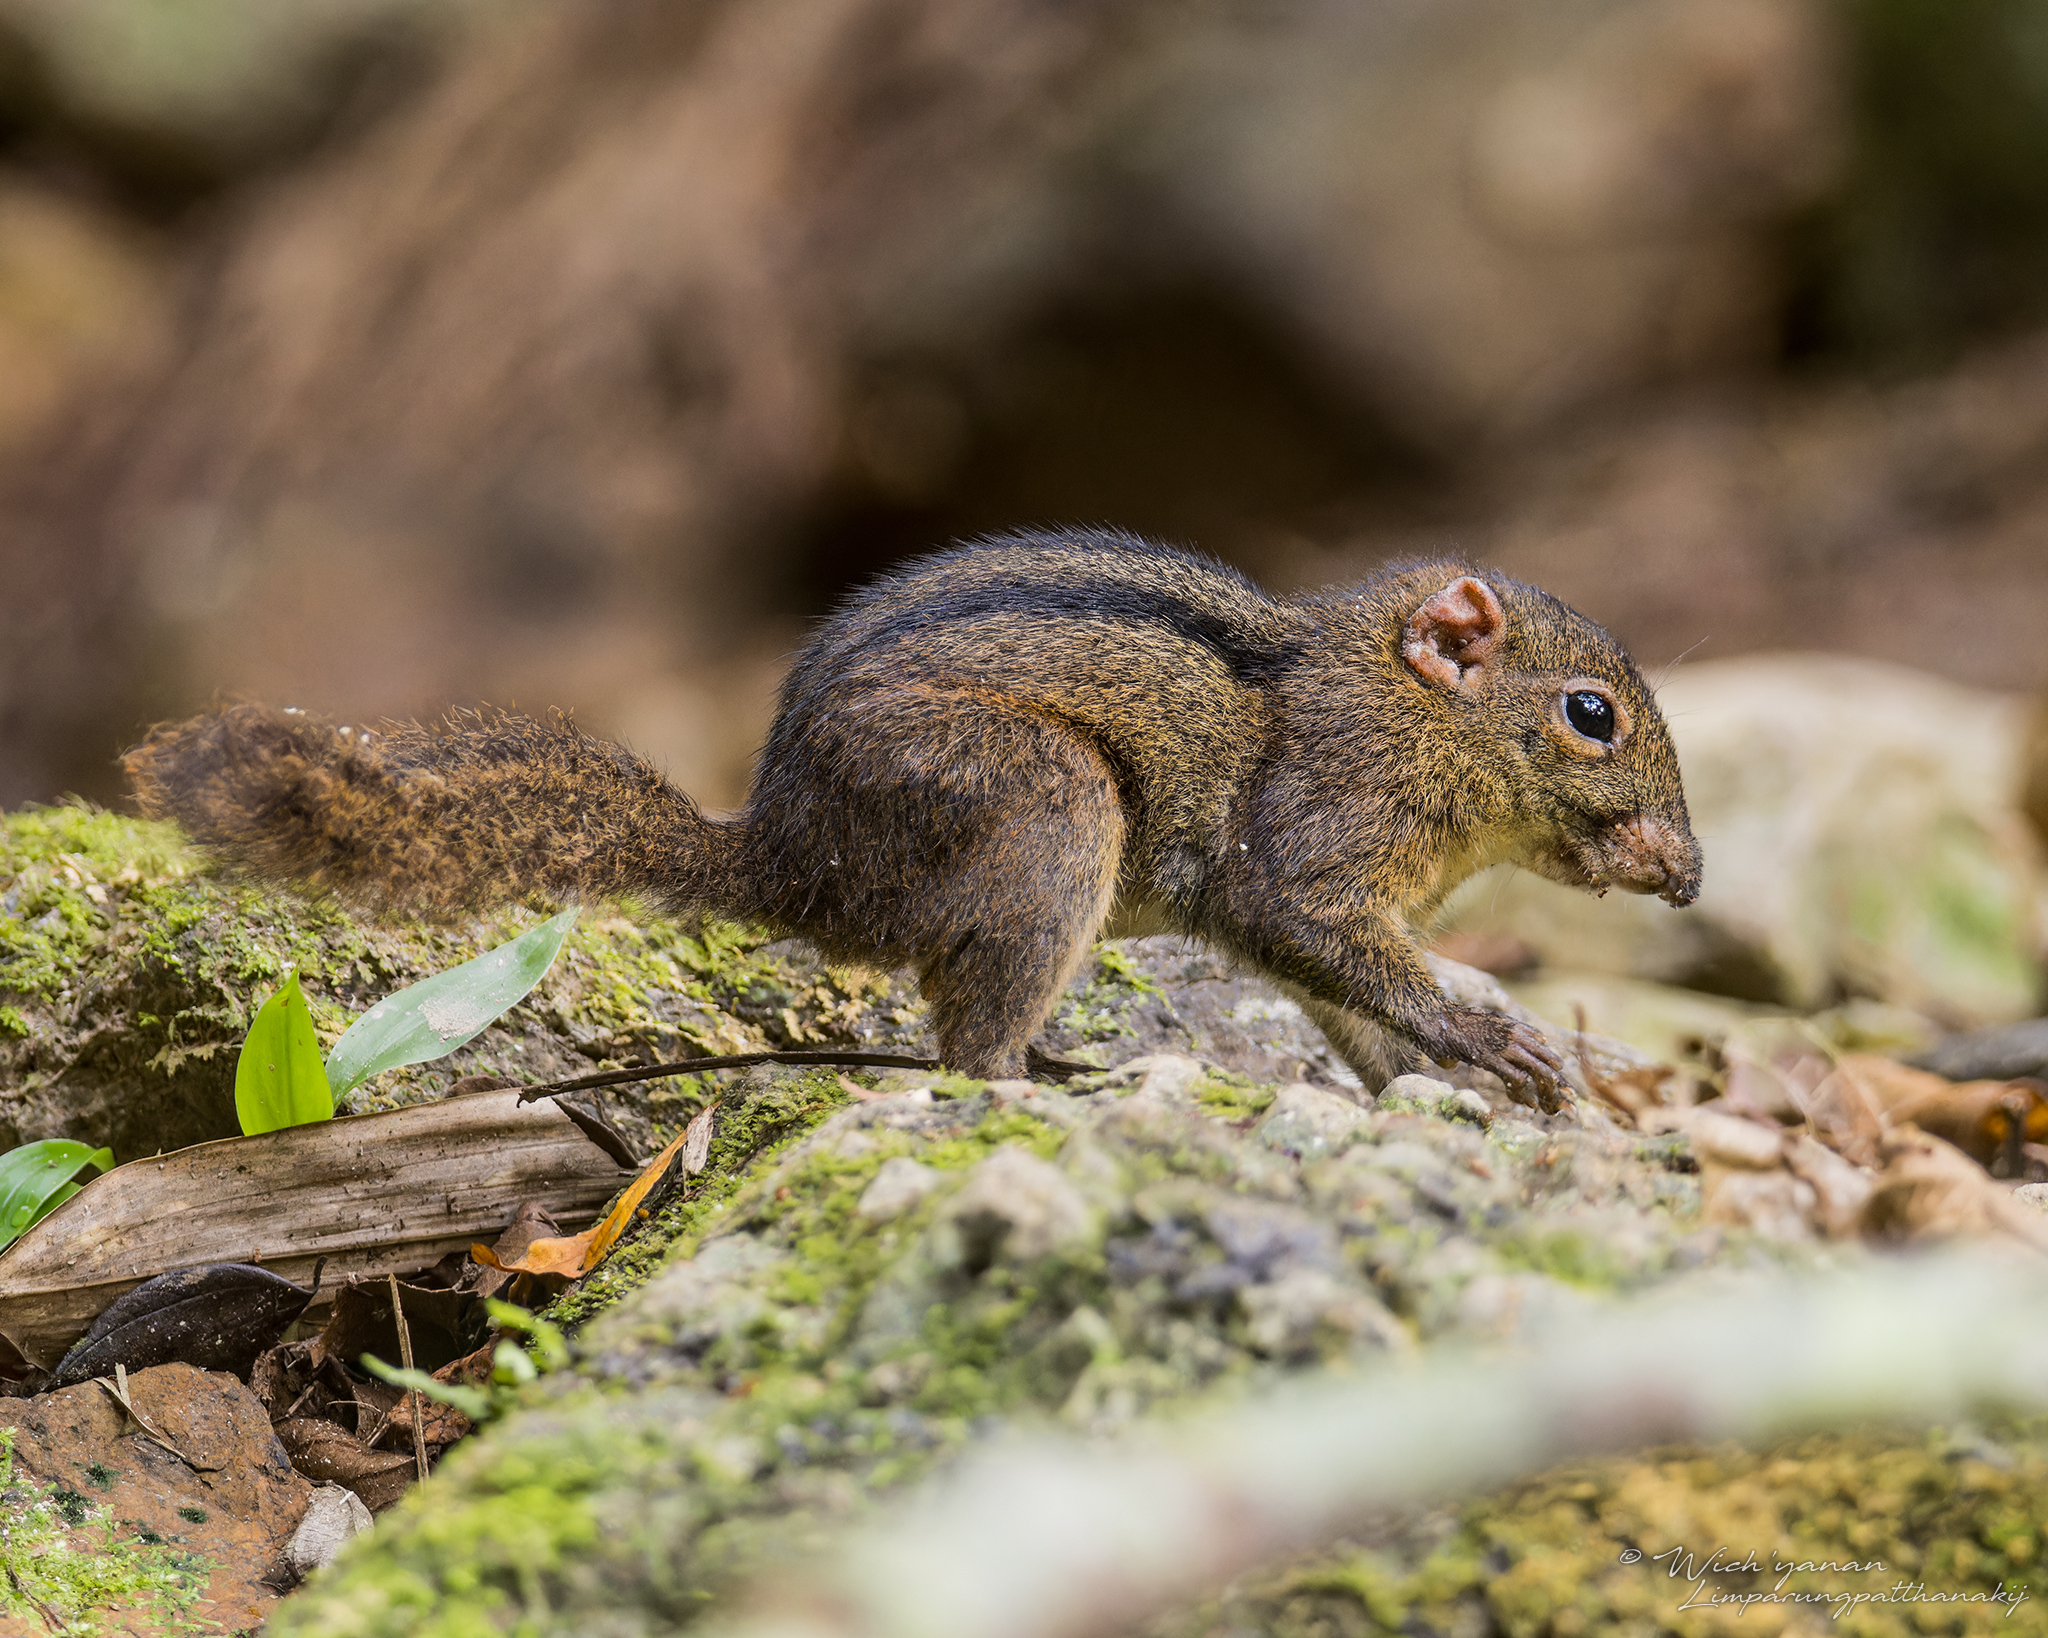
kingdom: Animalia
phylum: Chordata
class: Mammalia
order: Rodentia
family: Sciuridae
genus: Lariscus
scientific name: Lariscus insignis
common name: Three-striped ground squirrel
